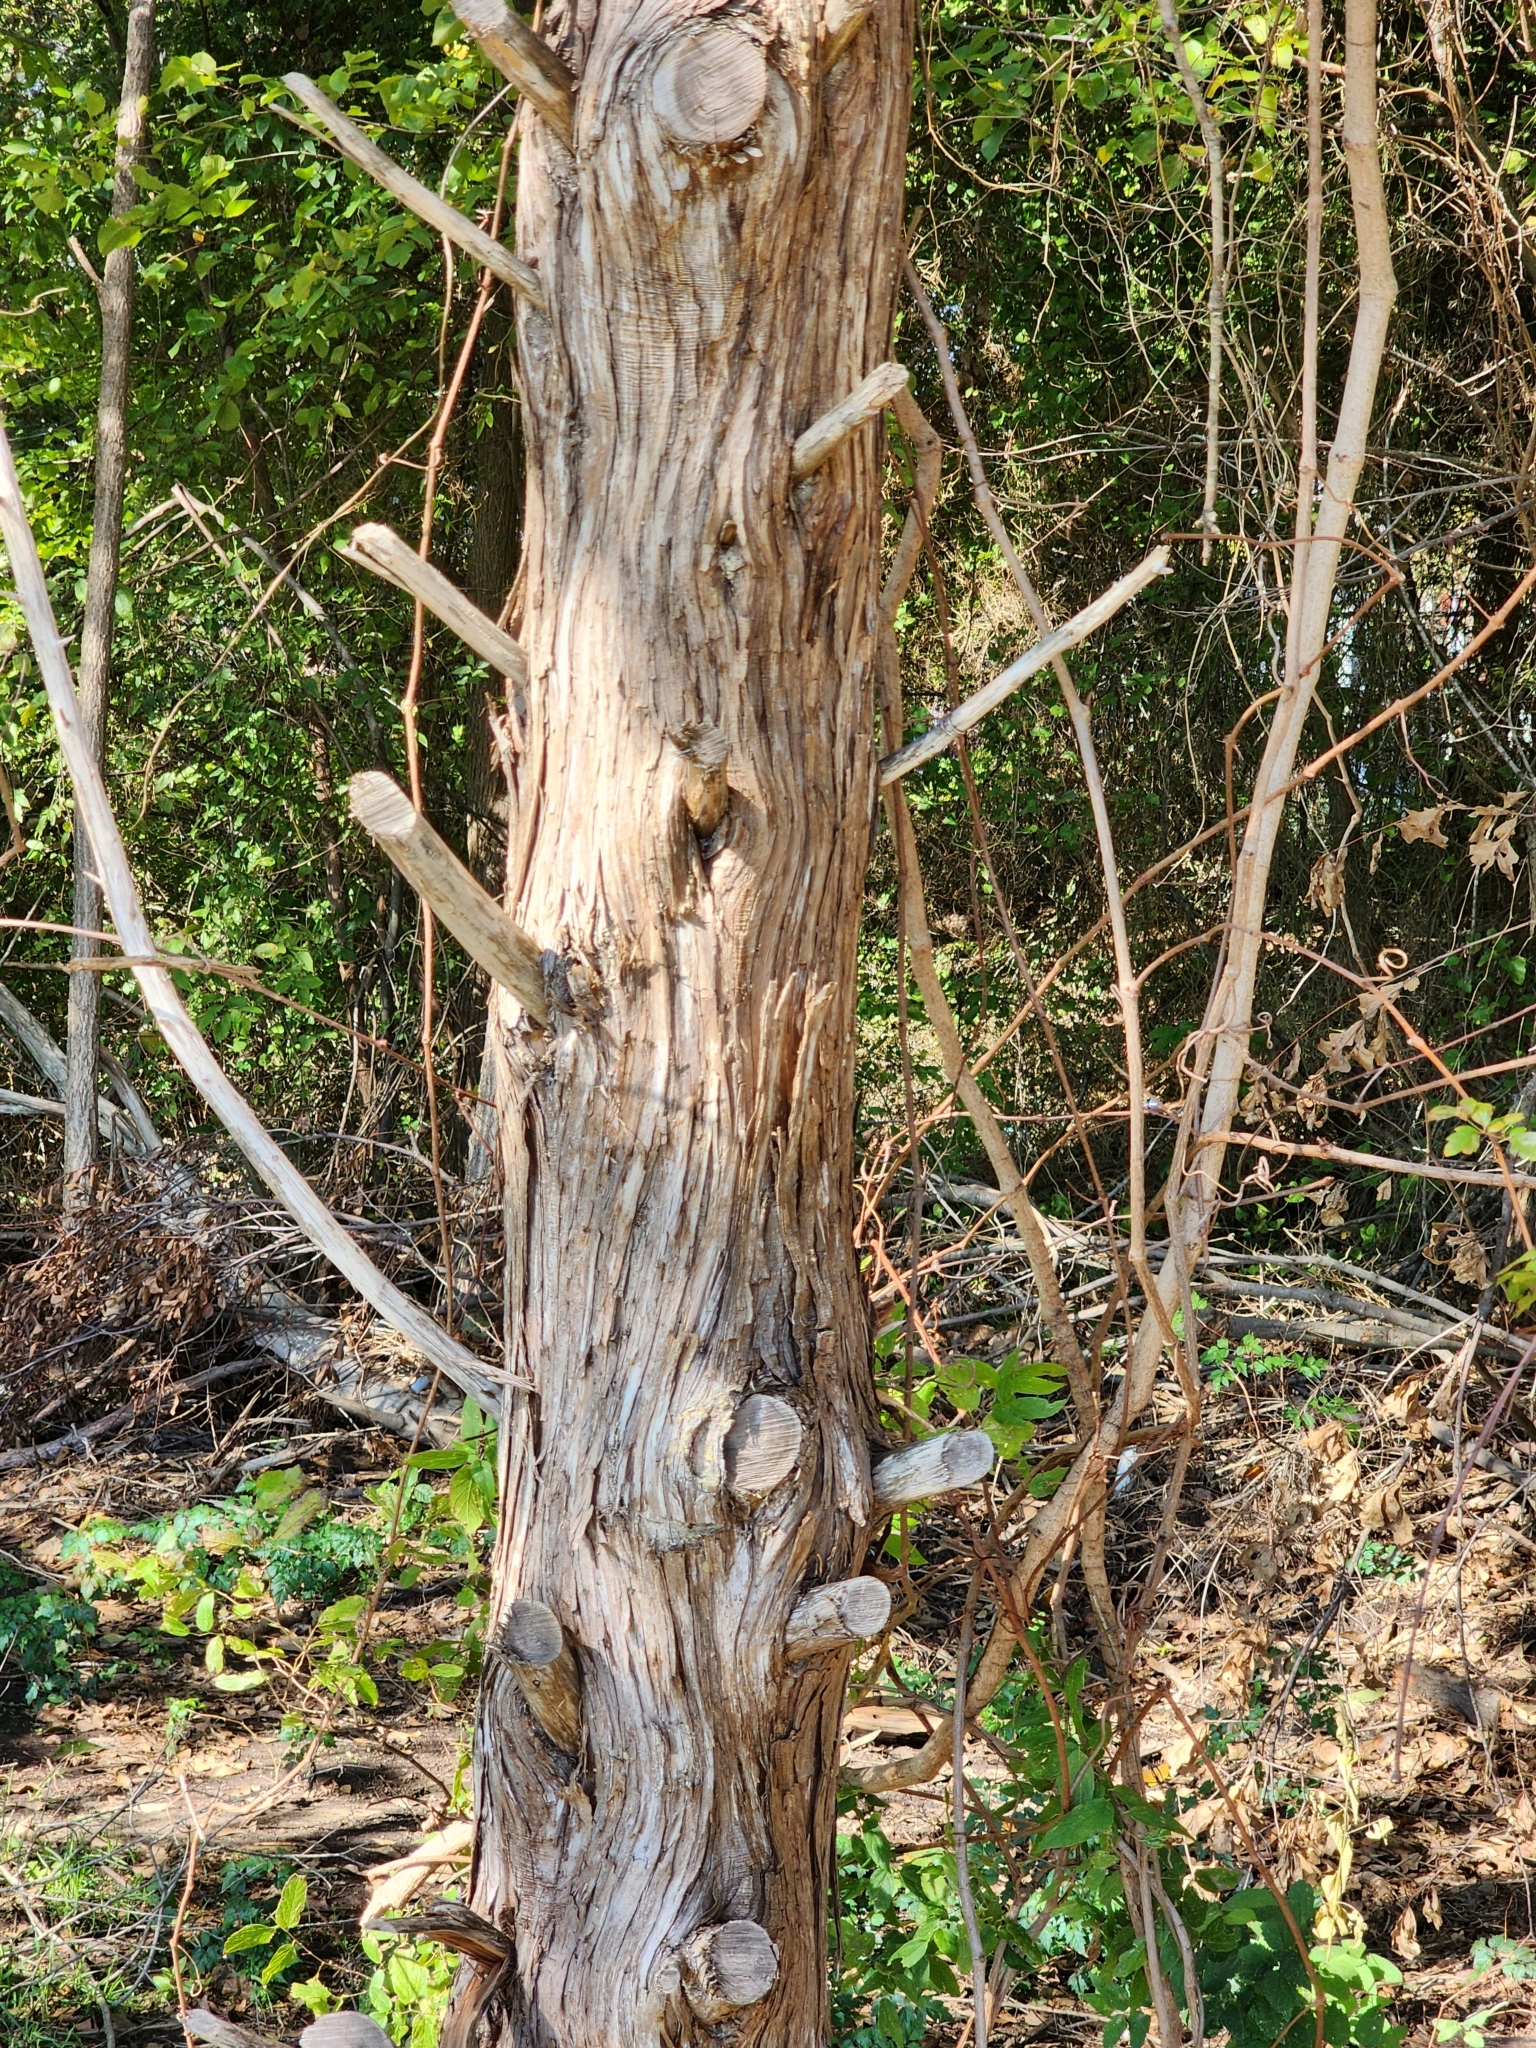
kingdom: Plantae
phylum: Tracheophyta
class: Pinopsida
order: Pinales
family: Cupressaceae
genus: Juniperus
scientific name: Juniperus virginiana
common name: Red juniper
